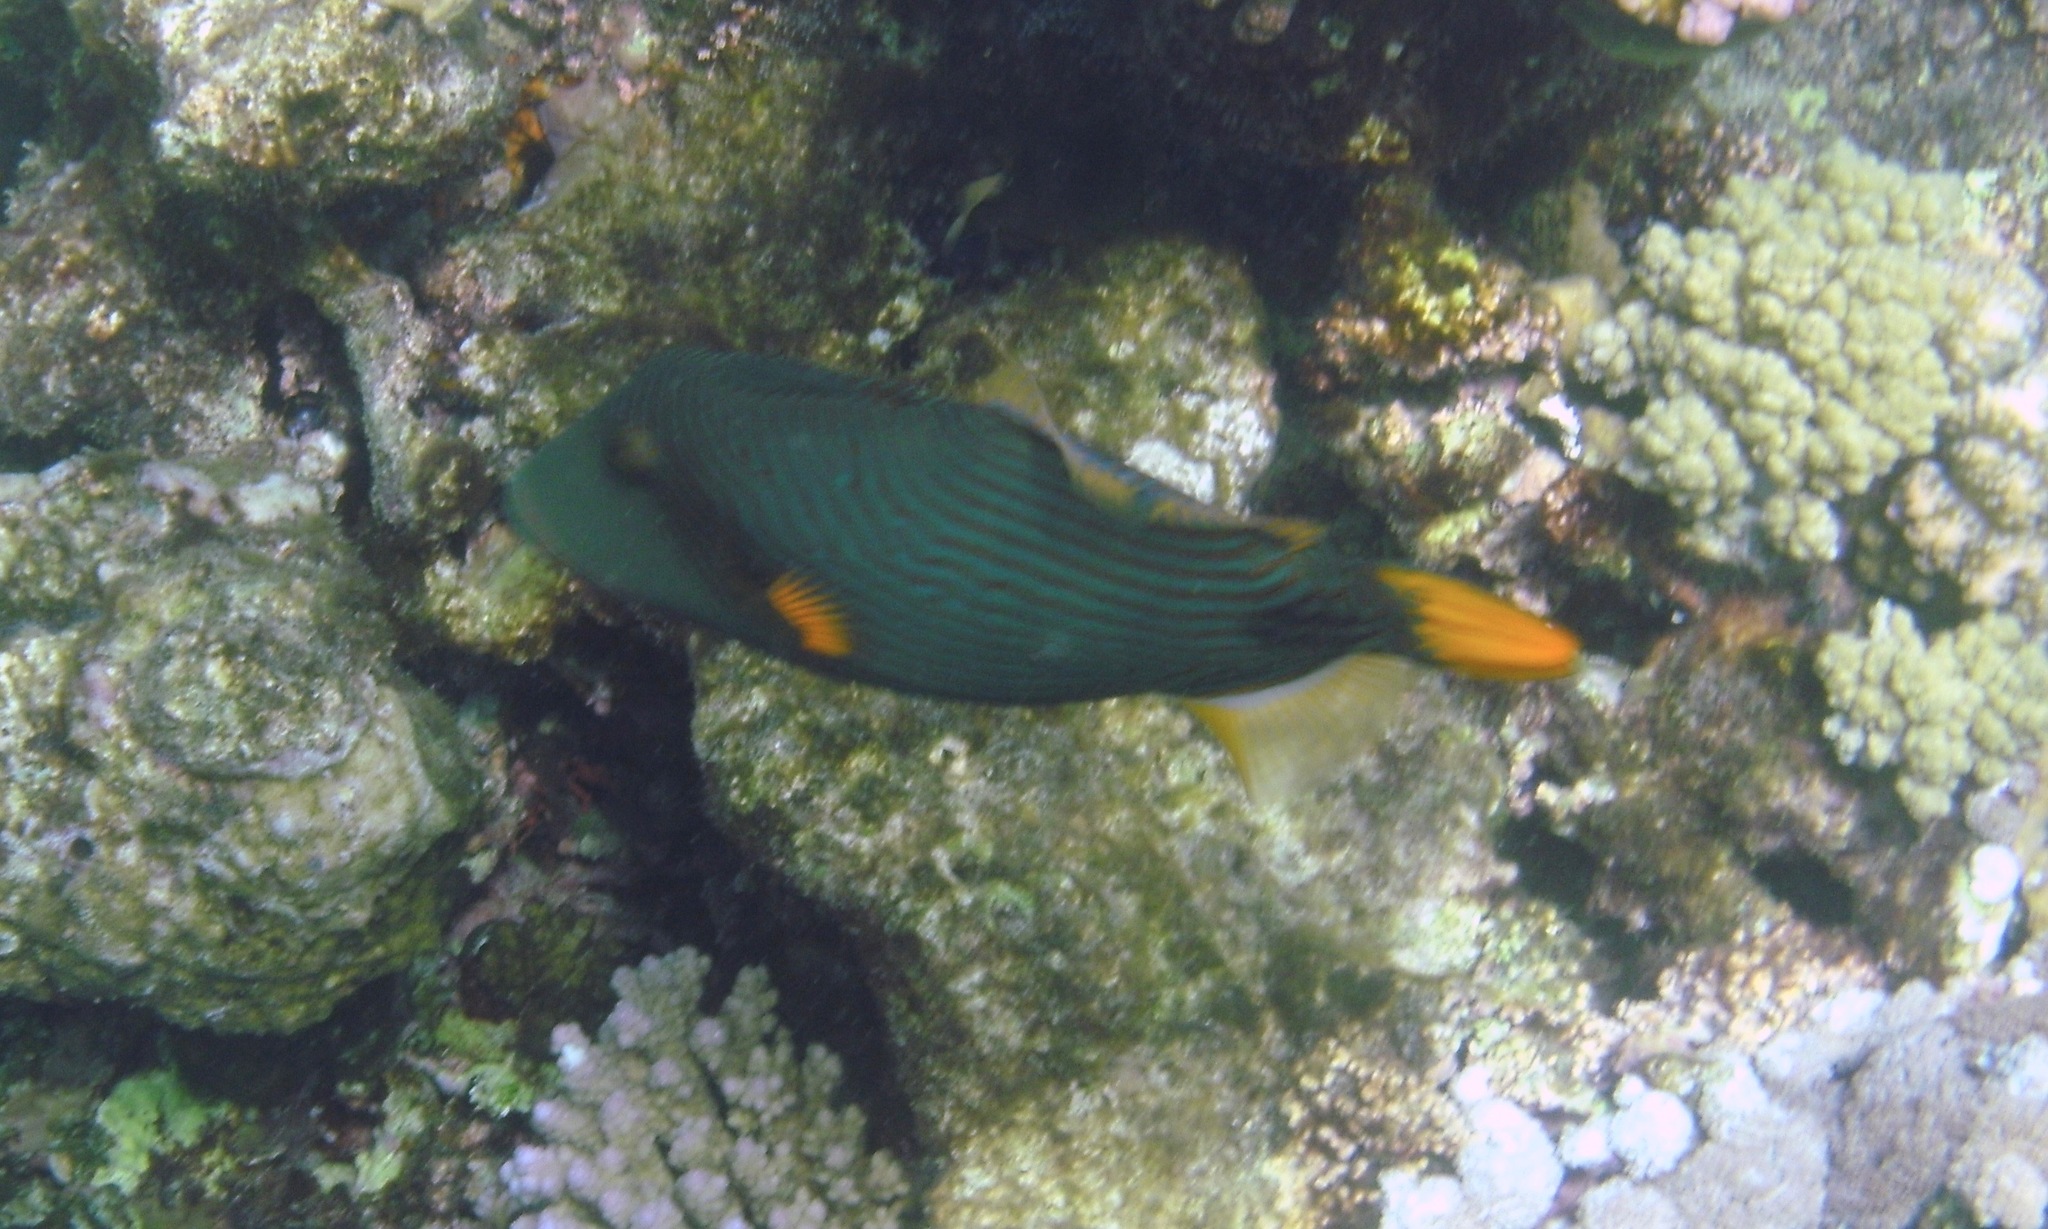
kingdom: Animalia
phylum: Chordata
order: Tetraodontiformes
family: Balistidae
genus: Balistapus
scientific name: Balistapus undulatus
